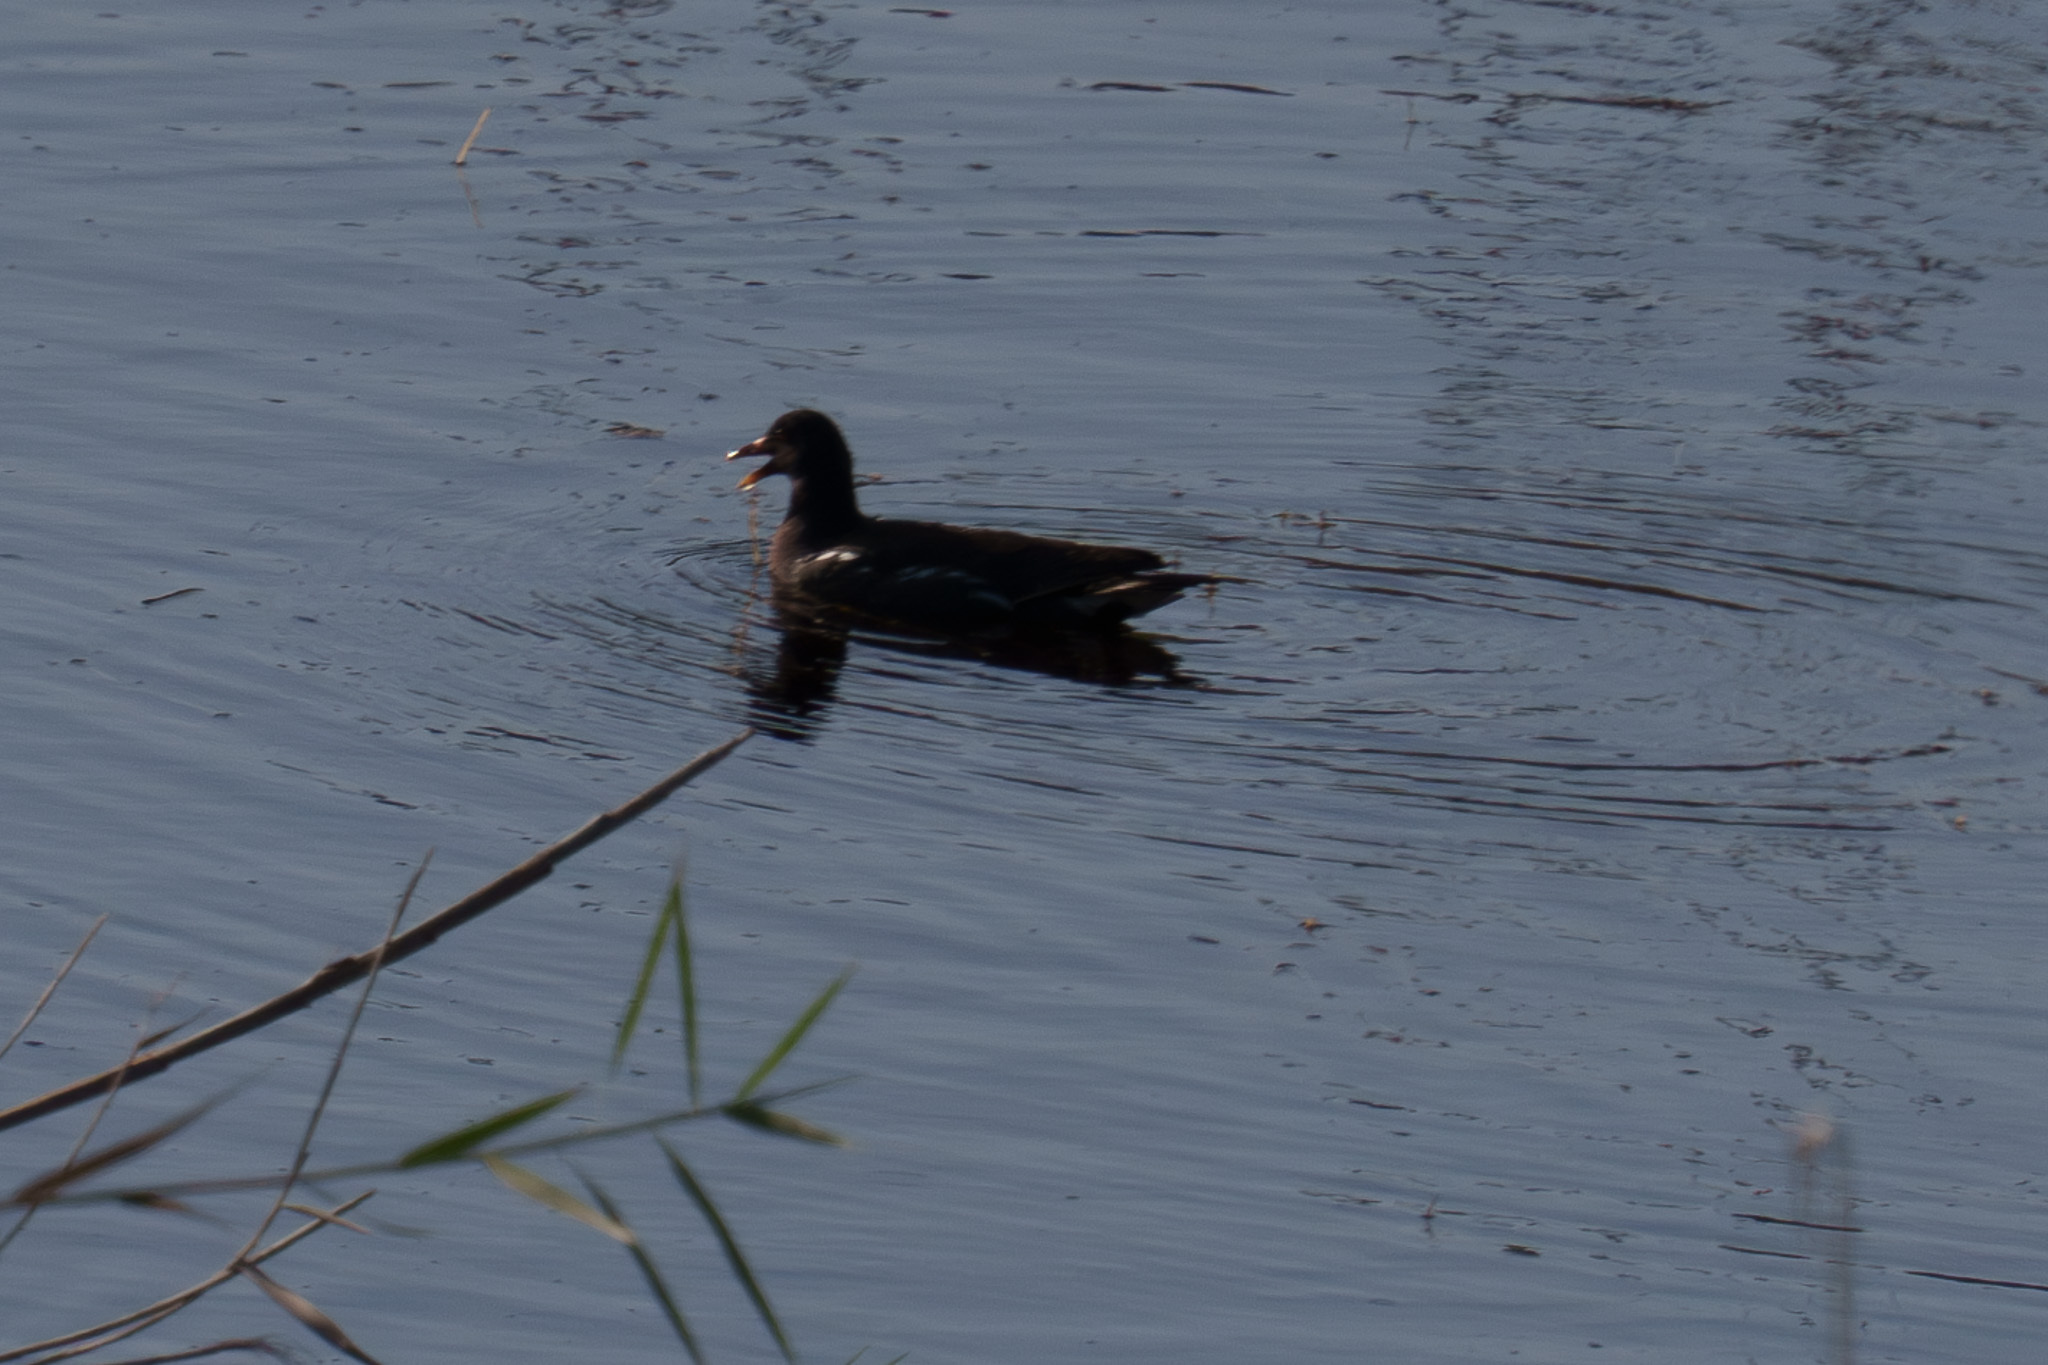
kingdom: Animalia
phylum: Chordata
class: Aves
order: Gruiformes
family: Rallidae
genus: Gallinula
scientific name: Gallinula chloropus
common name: Common moorhen
